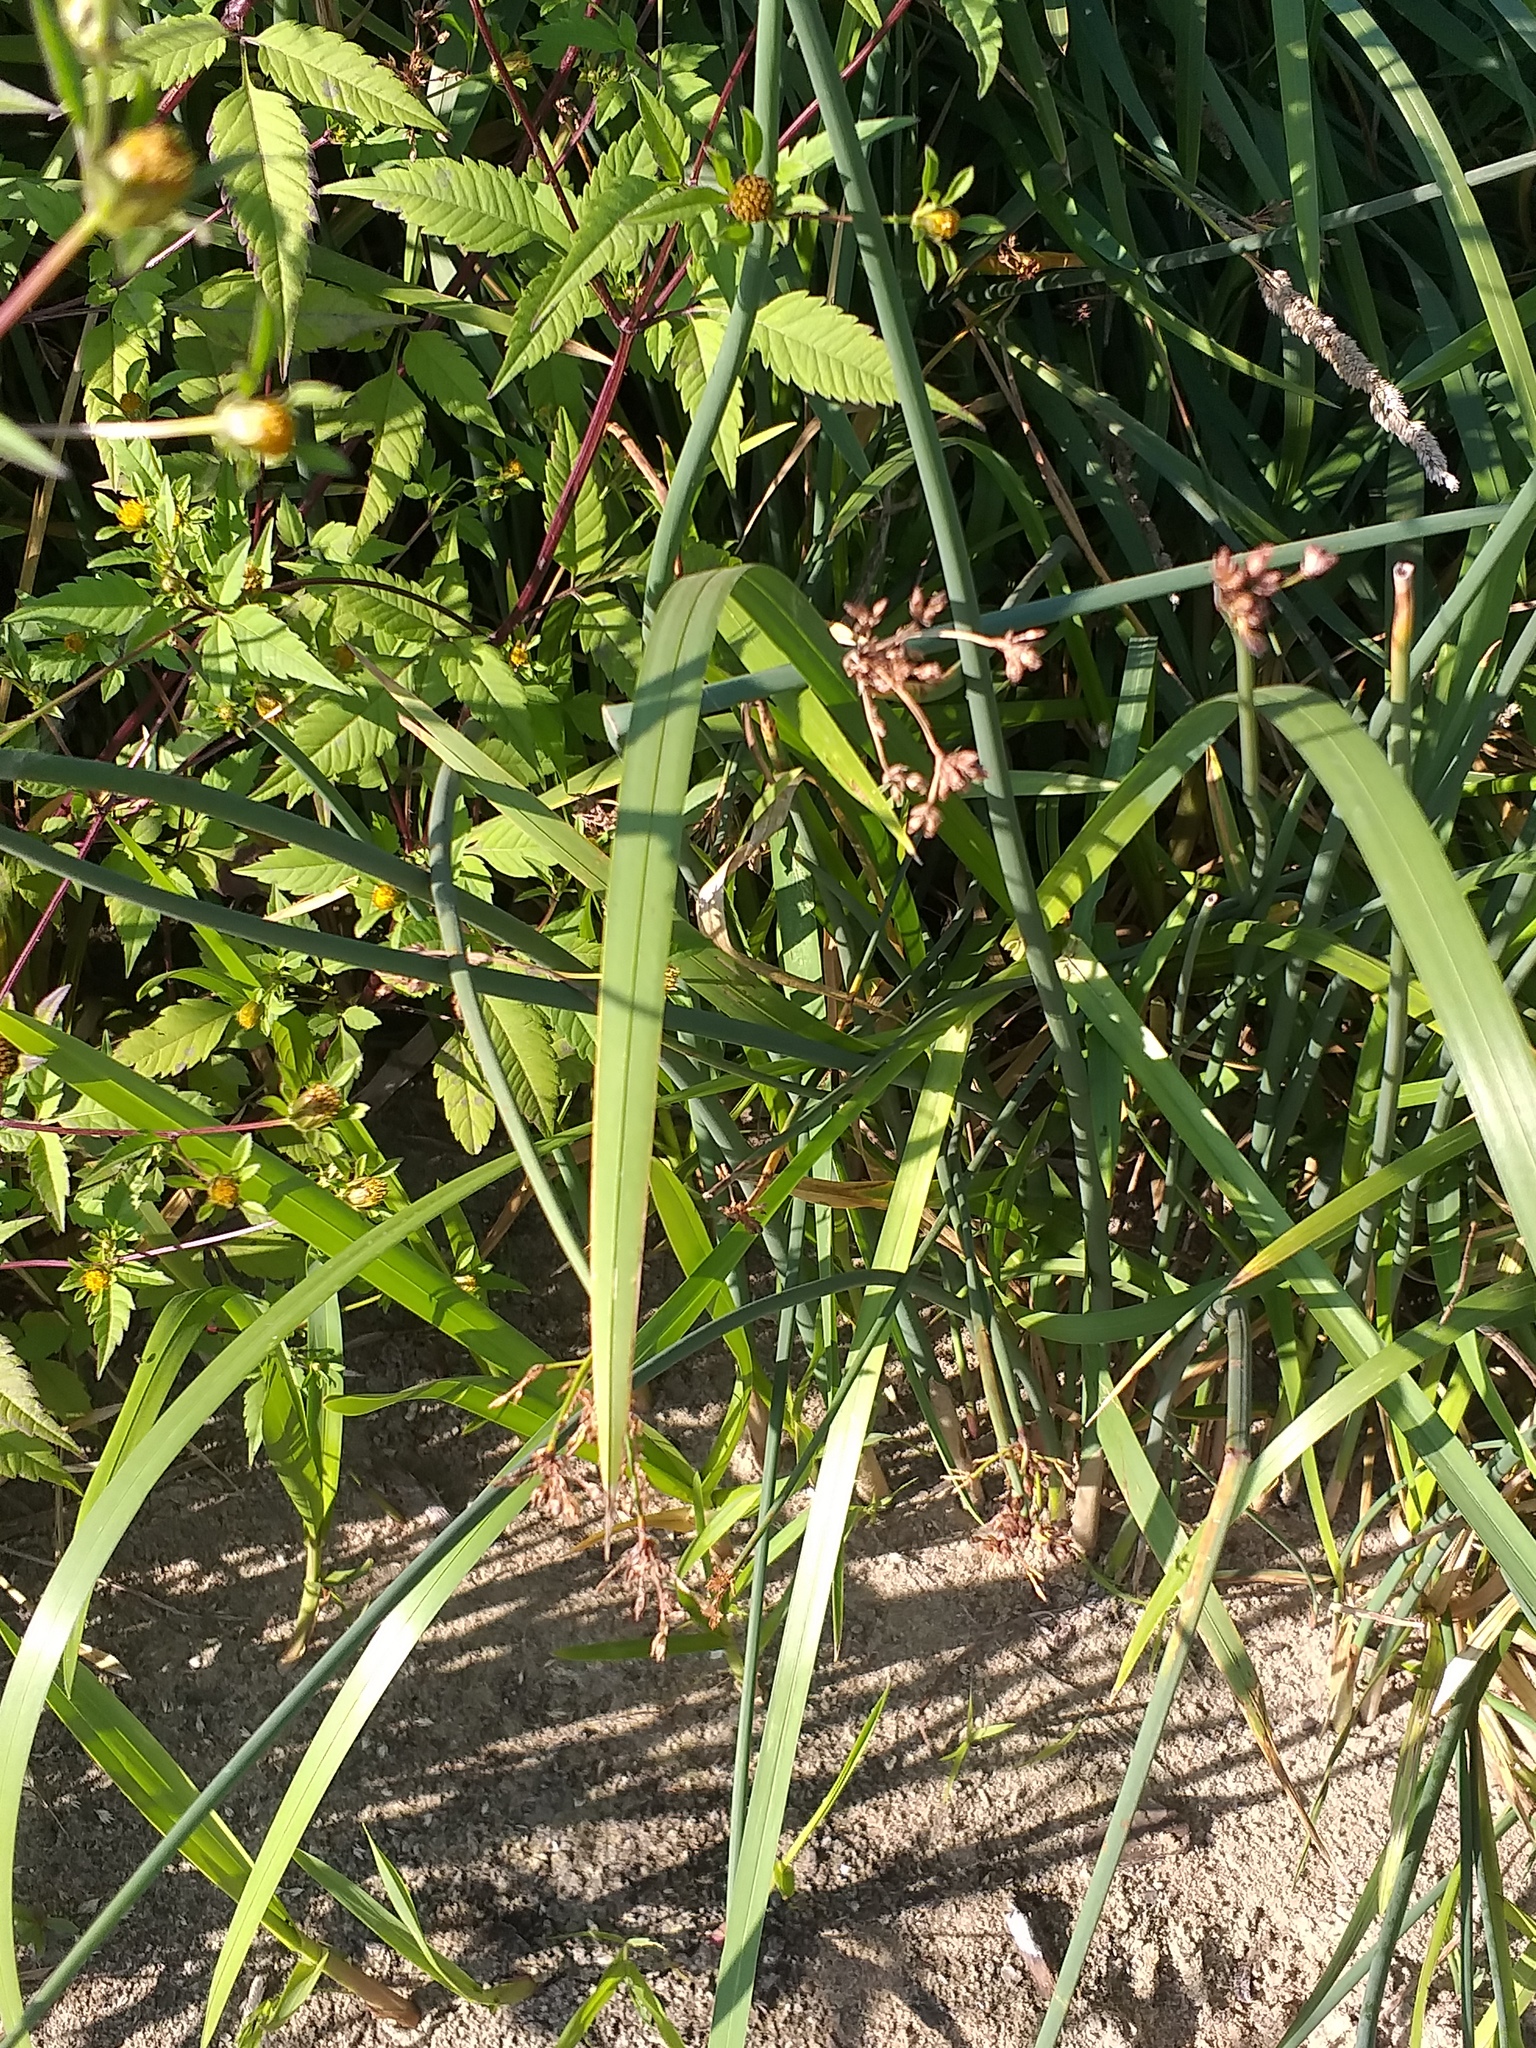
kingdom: Plantae
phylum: Tracheophyta
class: Liliopsida
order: Poales
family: Cyperaceae
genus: Schoenoplectus
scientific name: Schoenoplectus lacustris
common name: Common club-rush
